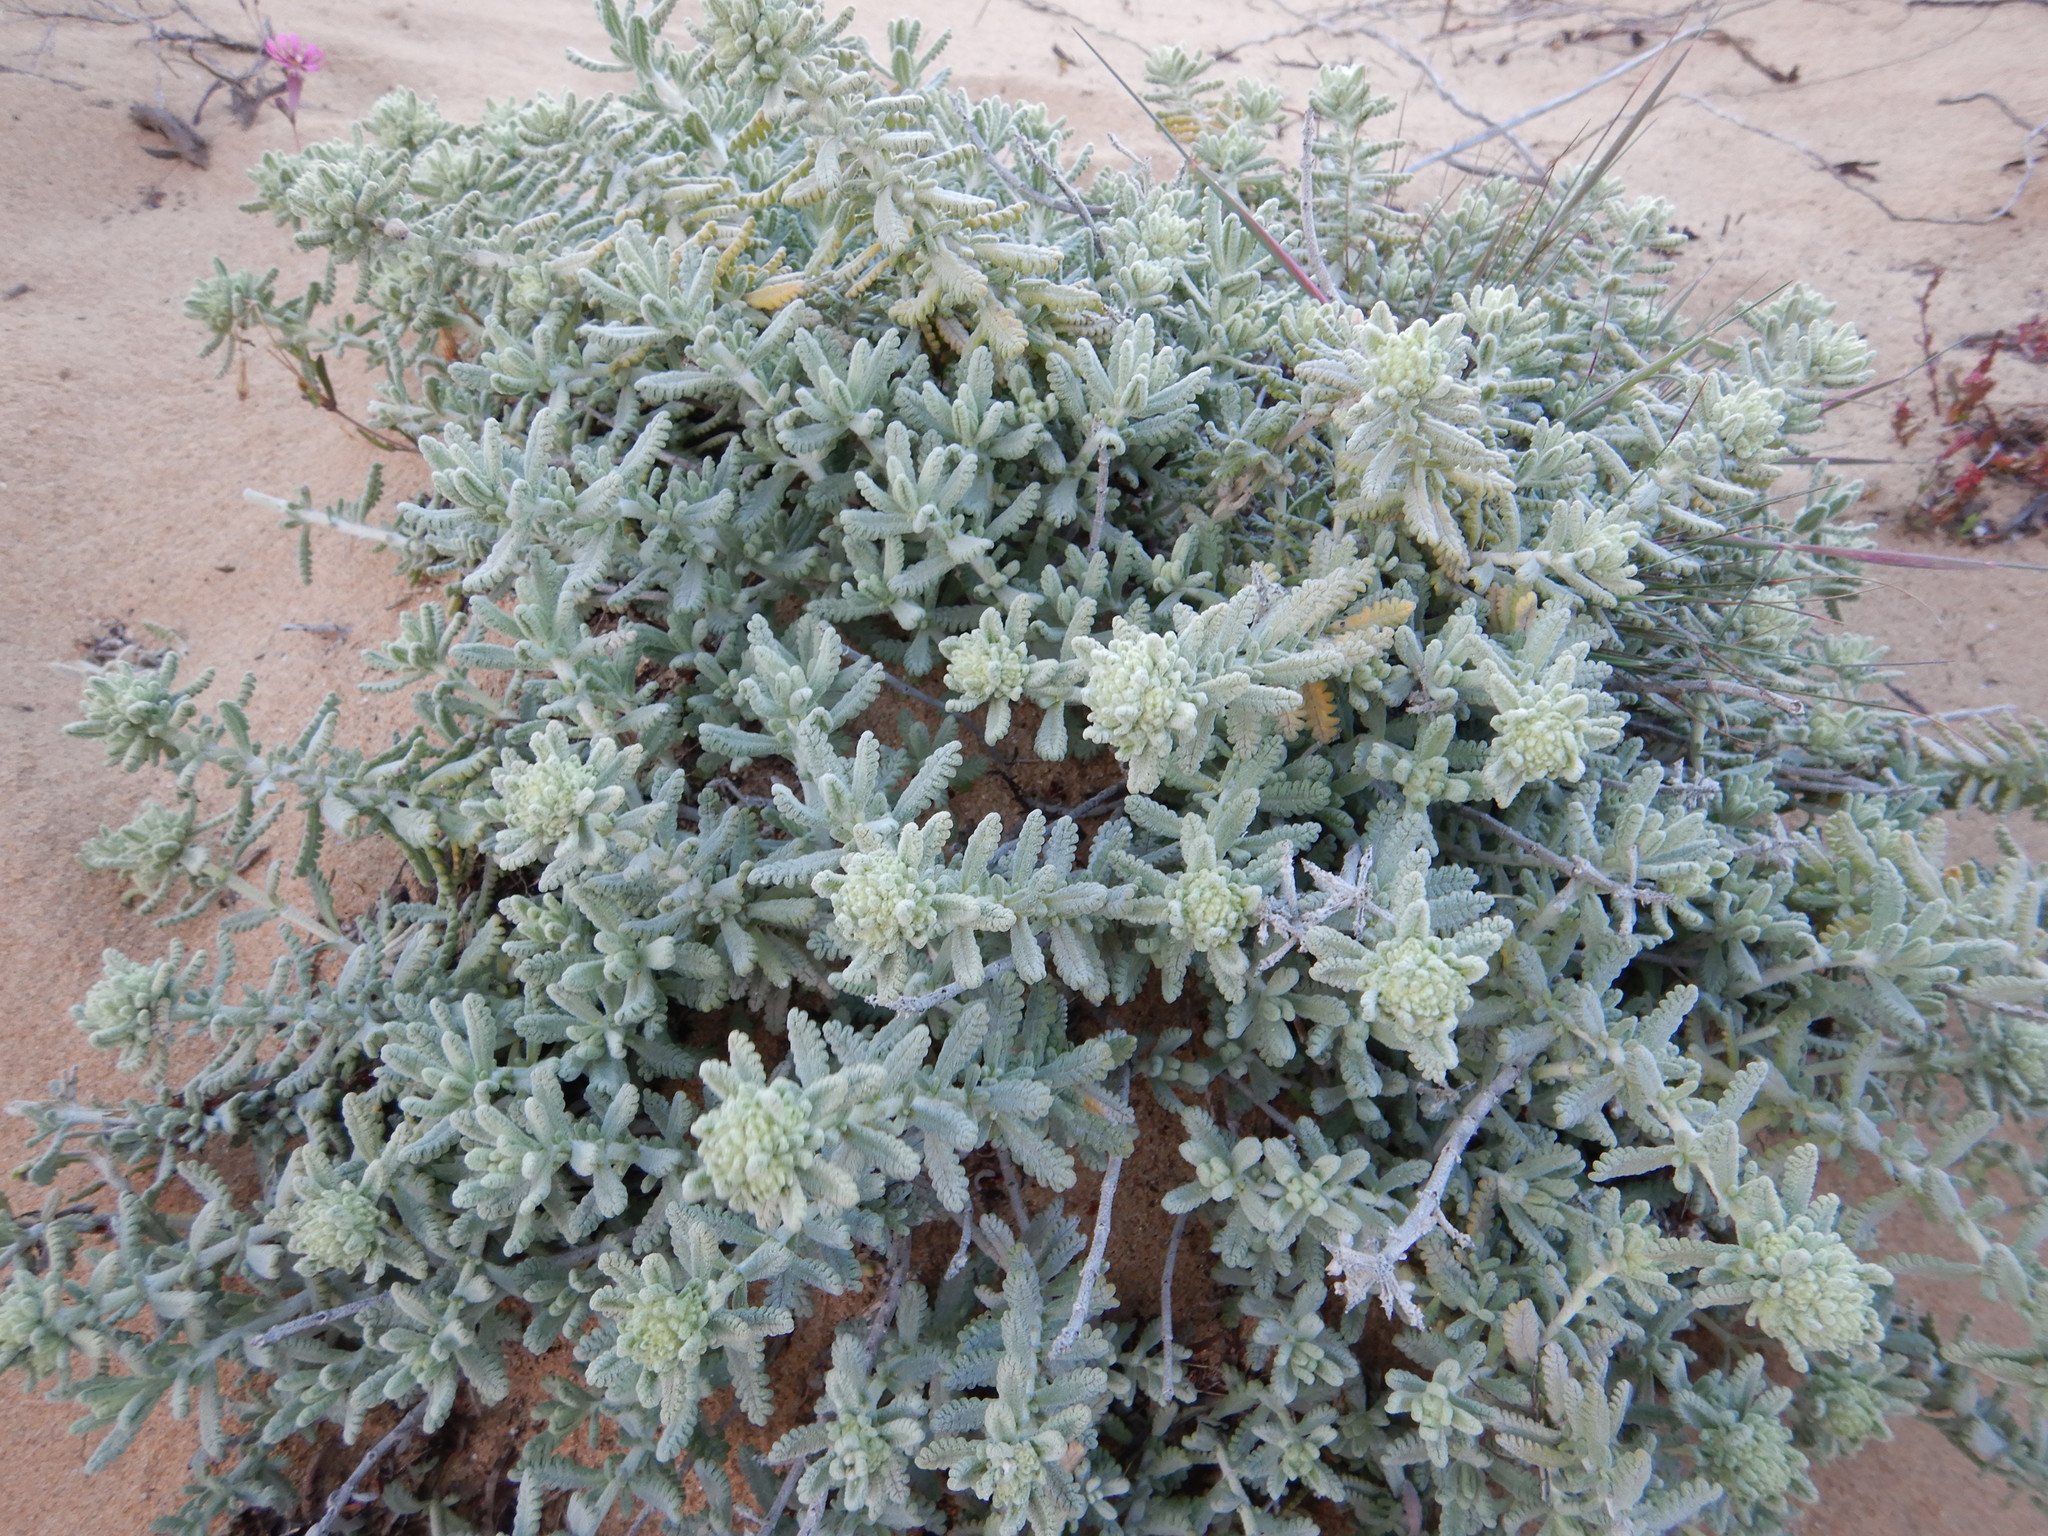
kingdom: Plantae
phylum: Tracheophyta
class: Magnoliopsida
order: Lamiales
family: Lamiaceae
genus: Teucrium
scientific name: Teucrium vincentinum
